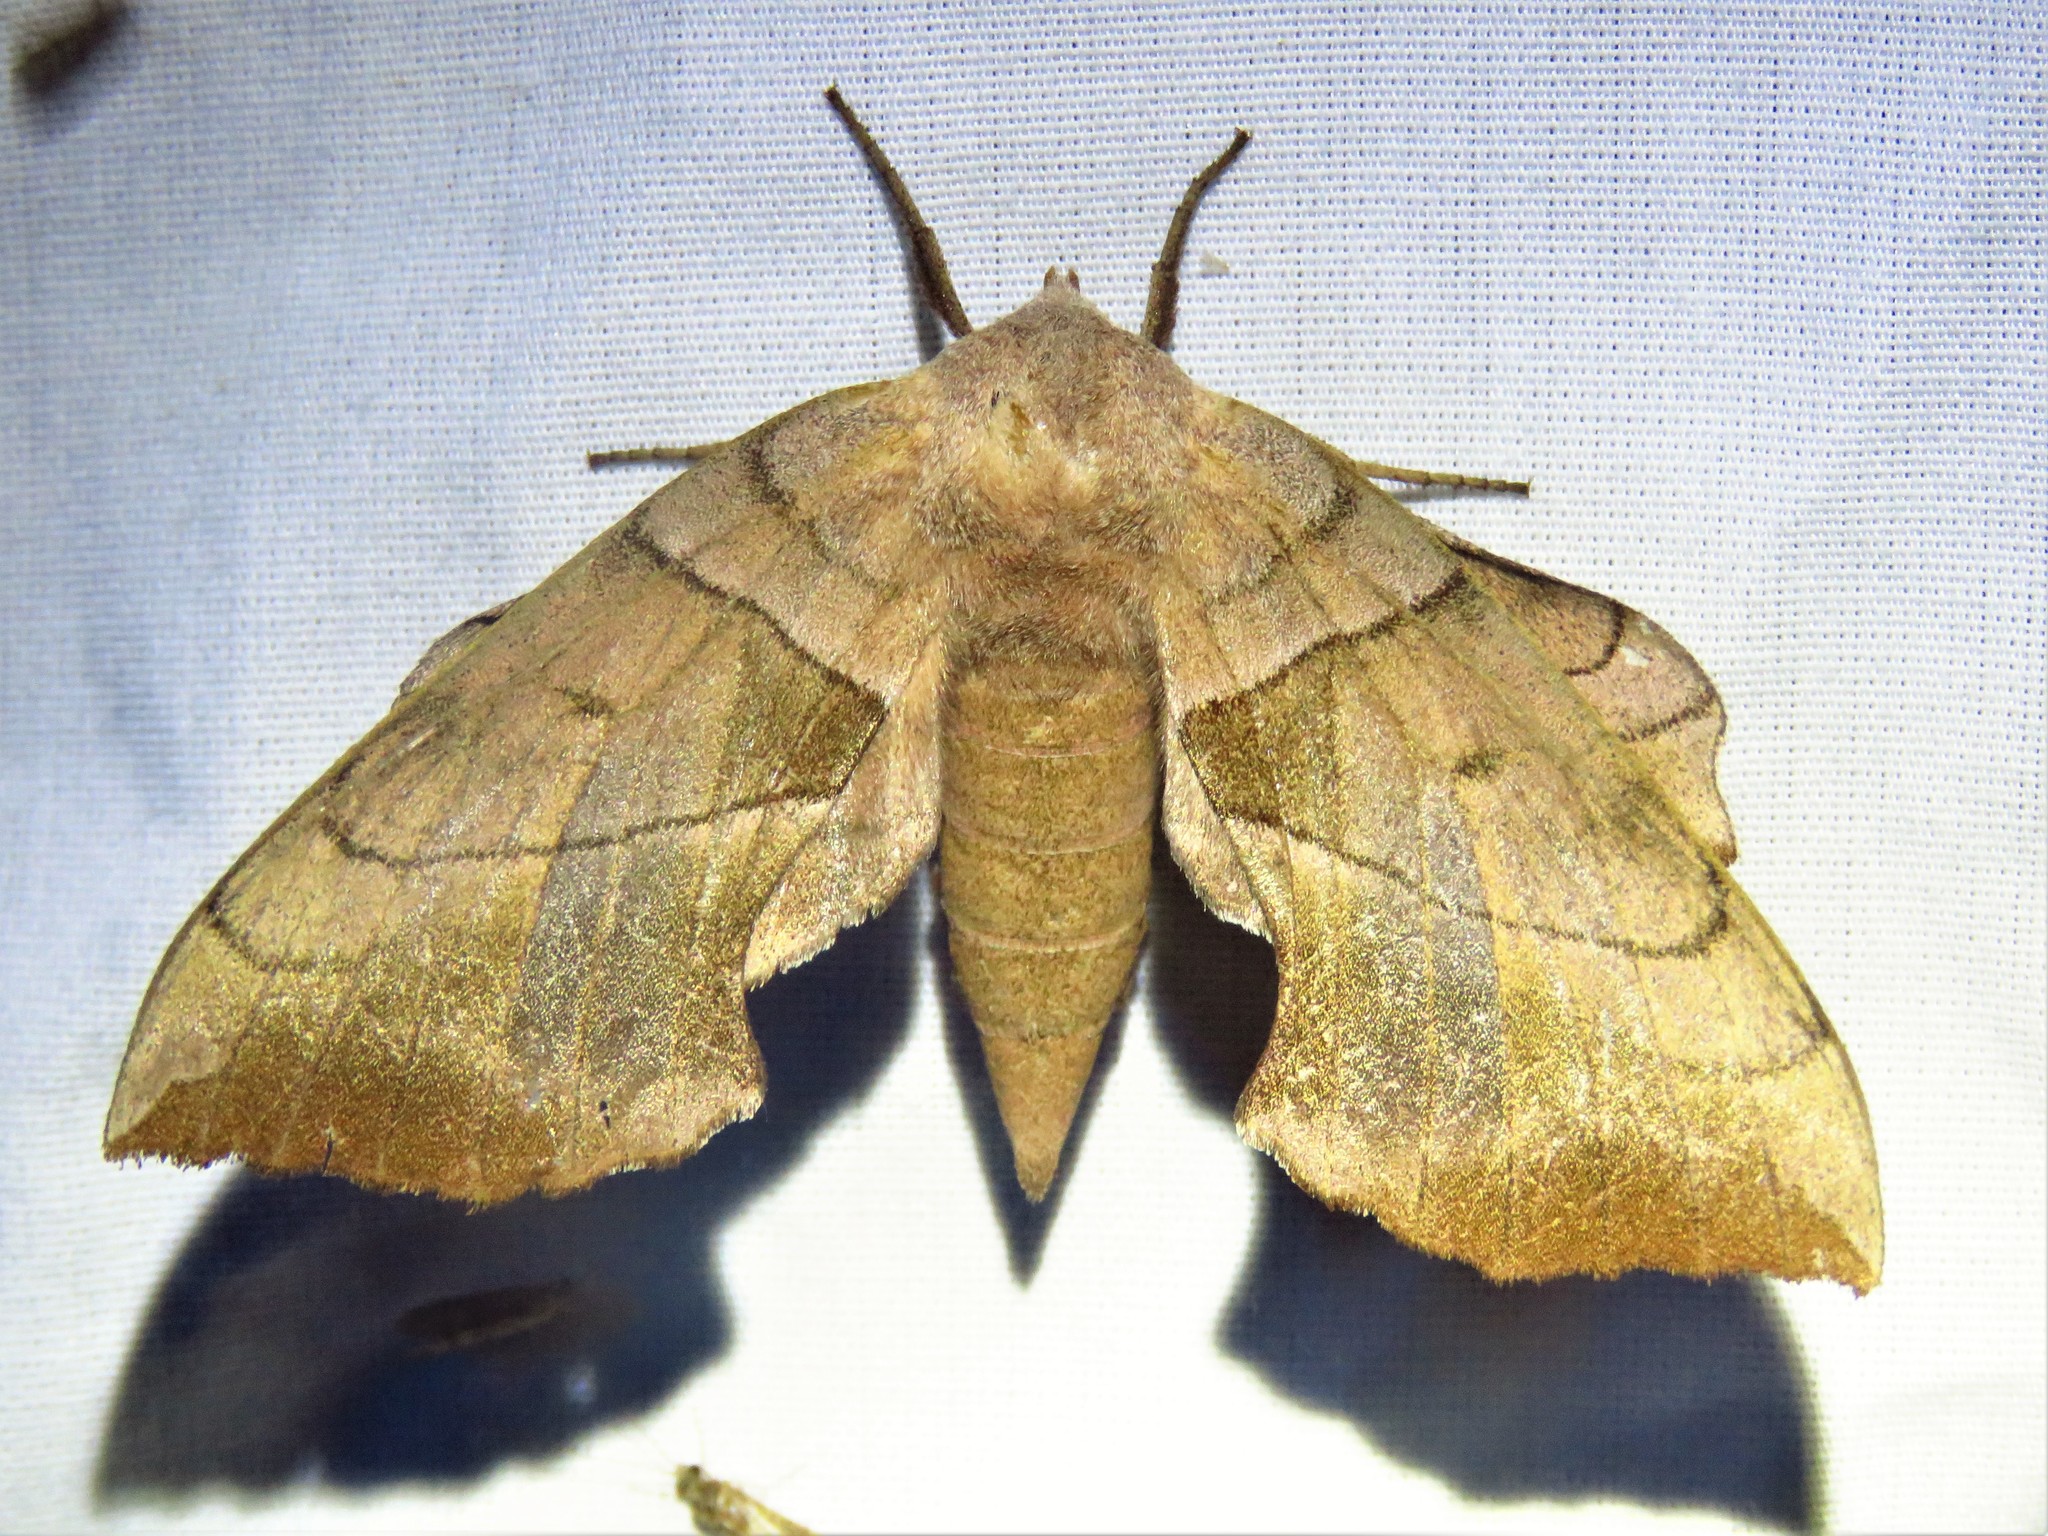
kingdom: Animalia
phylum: Arthropoda
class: Insecta
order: Lepidoptera
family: Sphingidae
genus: Amorpha
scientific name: Amorpha juglandis
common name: Walnut sphinx
